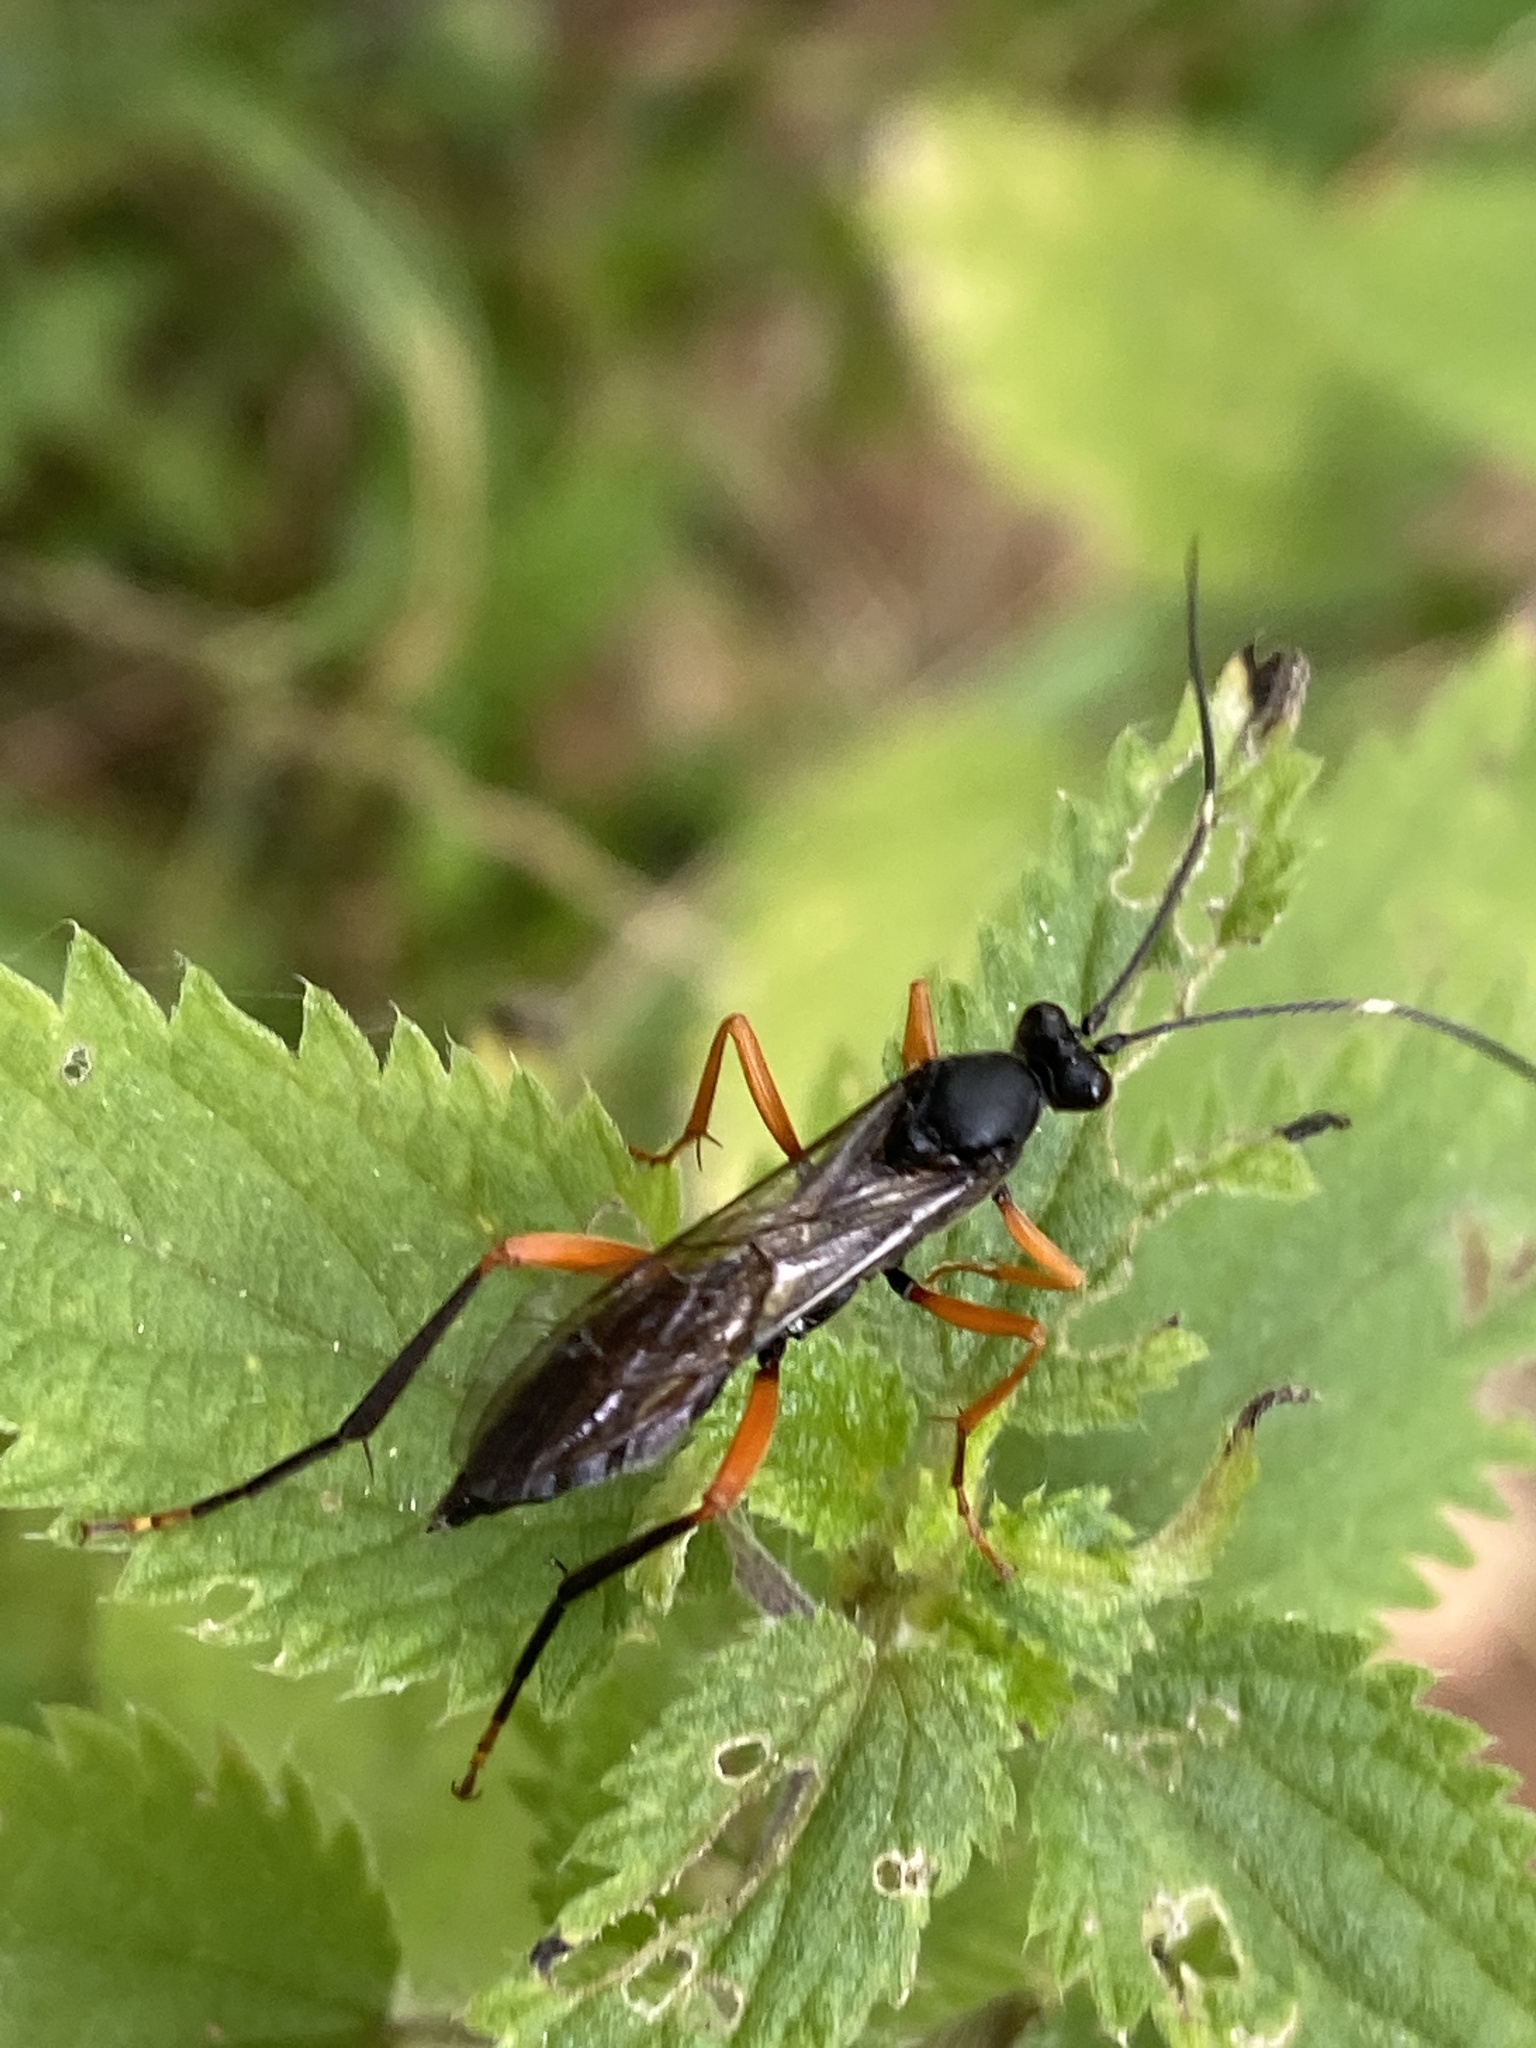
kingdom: Animalia
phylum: Arthropoda
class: Insecta
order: Hymenoptera
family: Ichneumonidae
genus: Hoplismenus
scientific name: Hoplismenus terrificus
